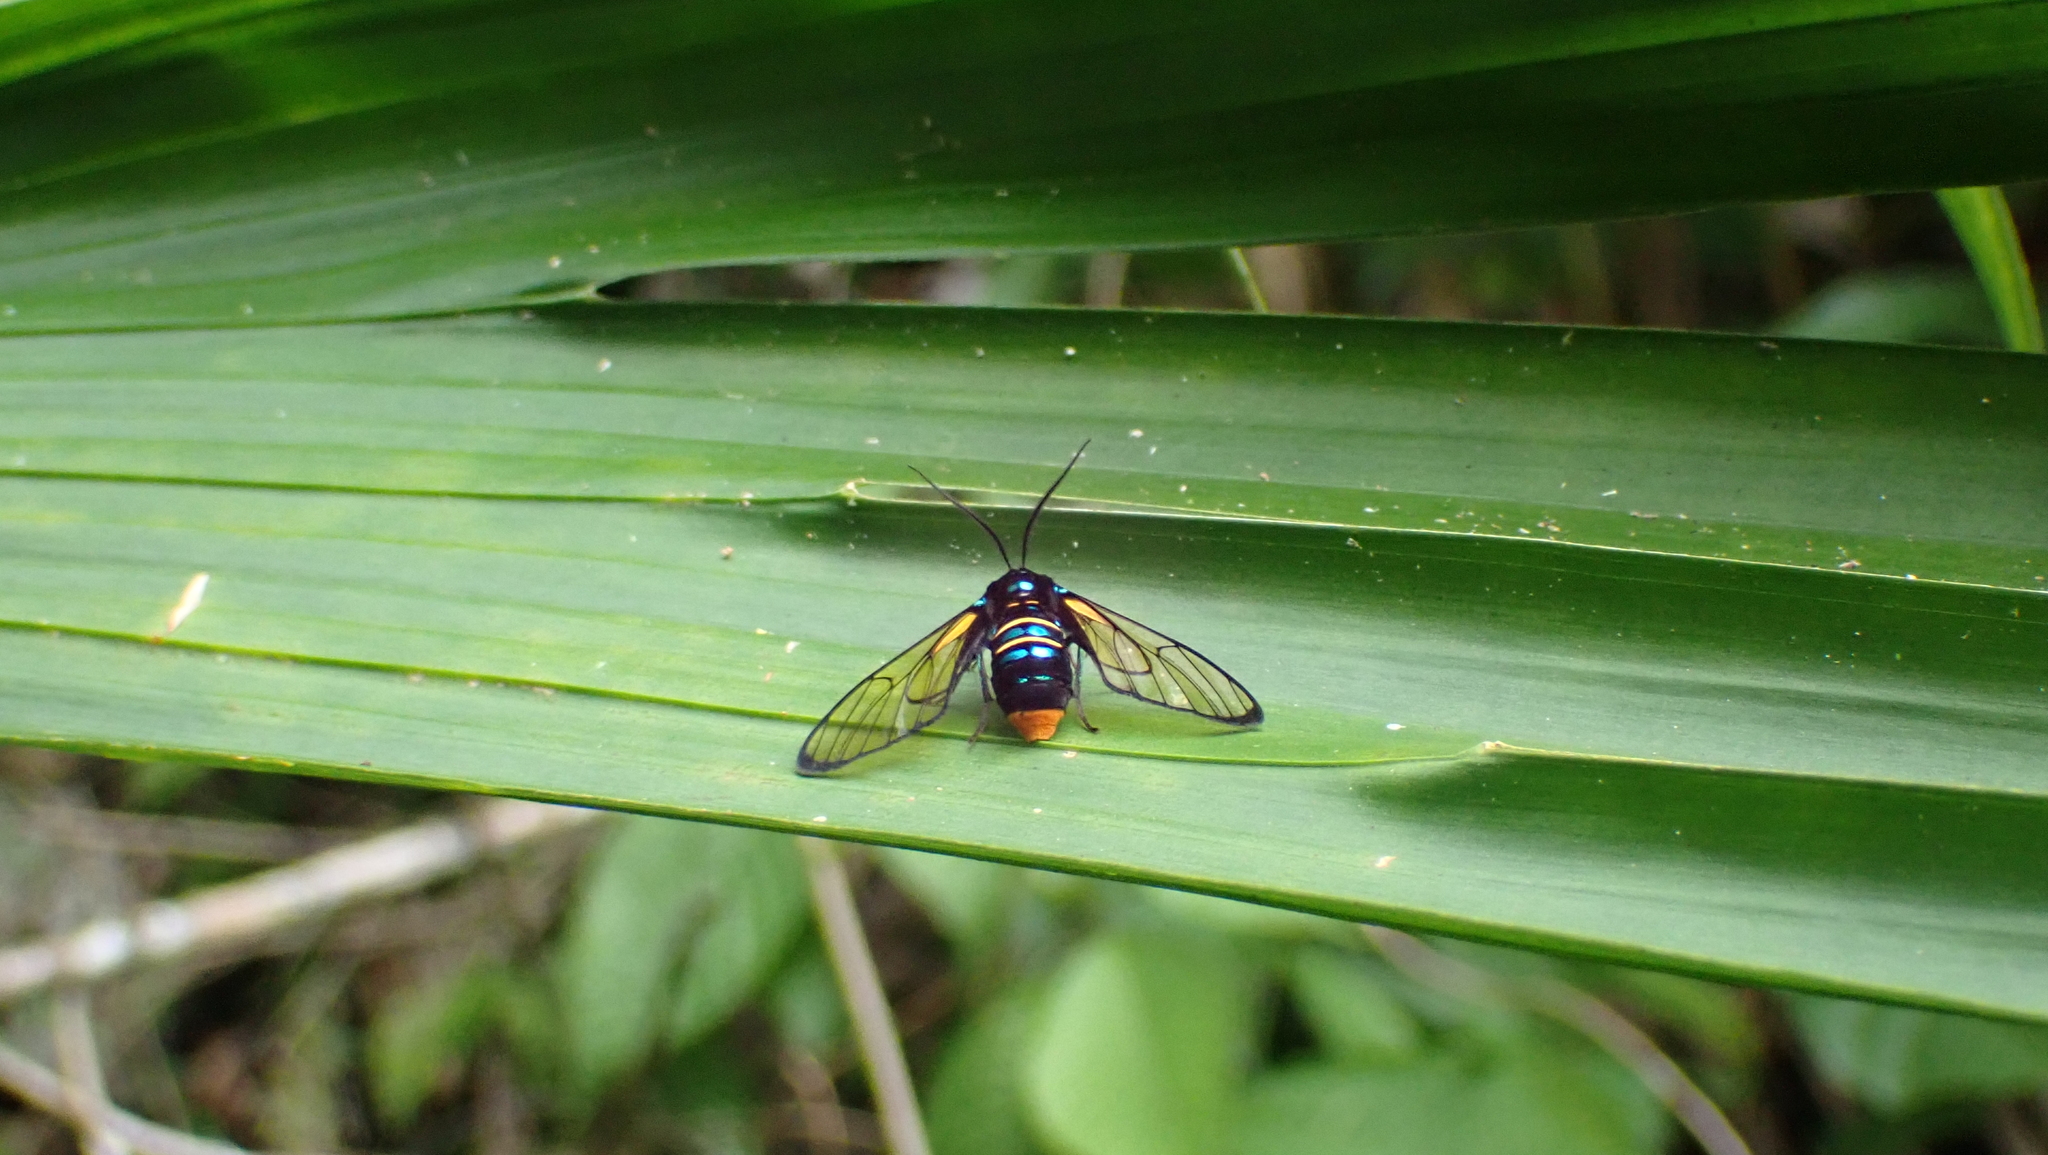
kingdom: Animalia
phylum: Arthropoda
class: Insecta
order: Lepidoptera
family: Erebidae
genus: Gymnelia
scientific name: Gymnelia guapila
